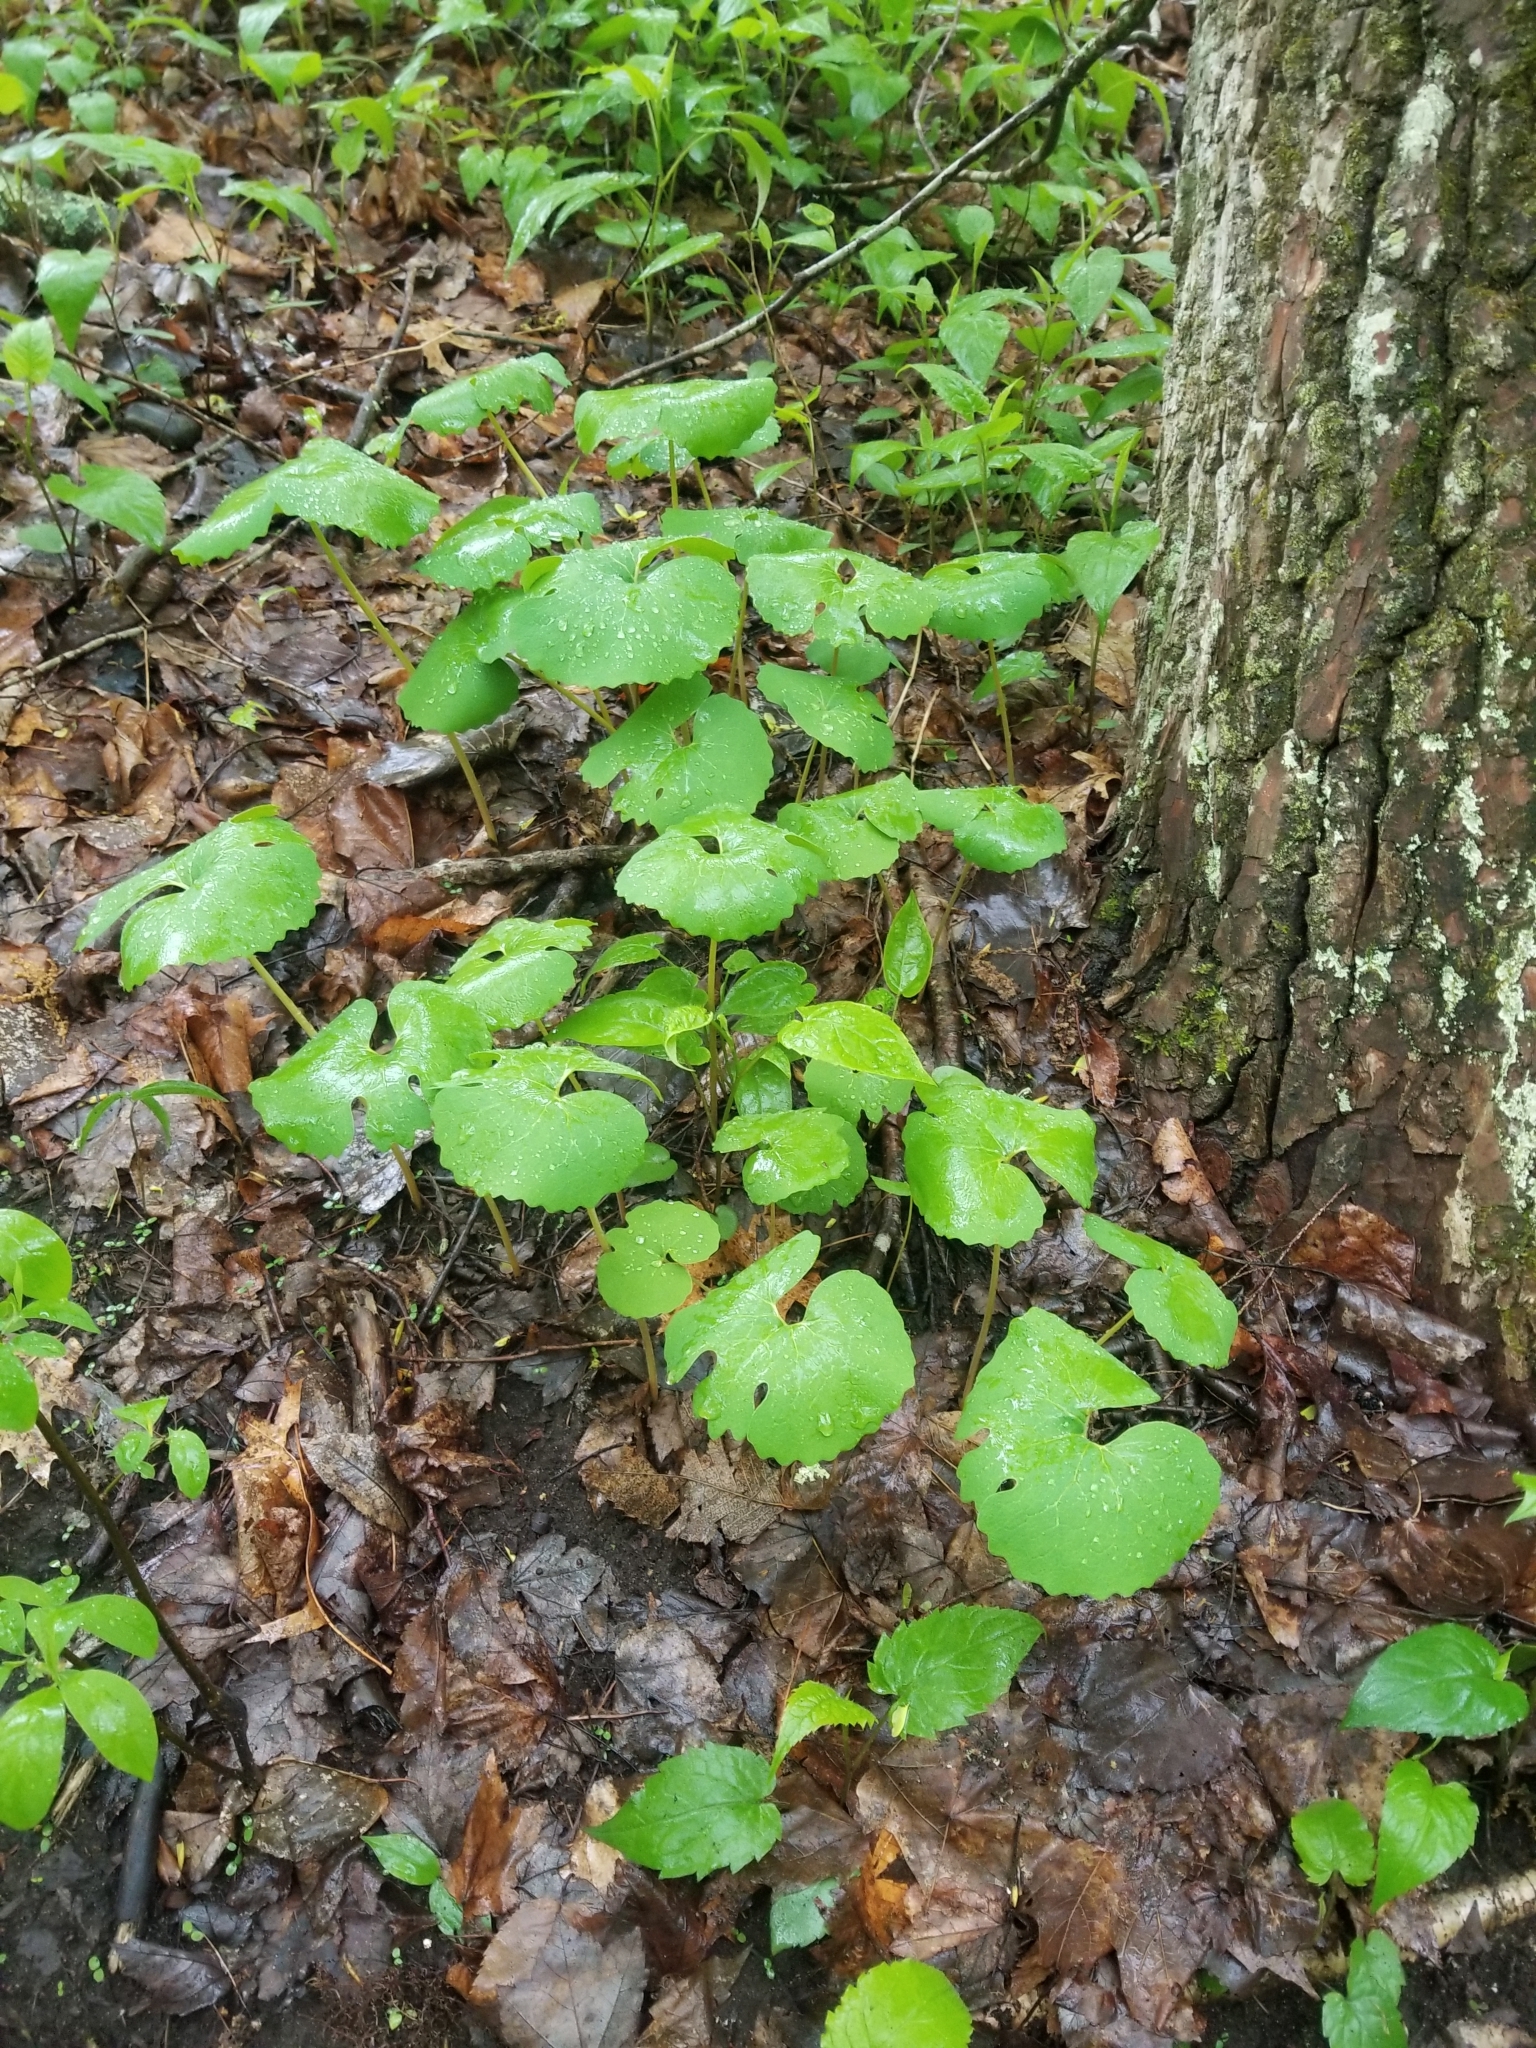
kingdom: Plantae
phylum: Tracheophyta
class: Magnoliopsida
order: Ranunculales
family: Papaveraceae
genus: Sanguinaria
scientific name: Sanguinaria canadensis
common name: Bloodroot
